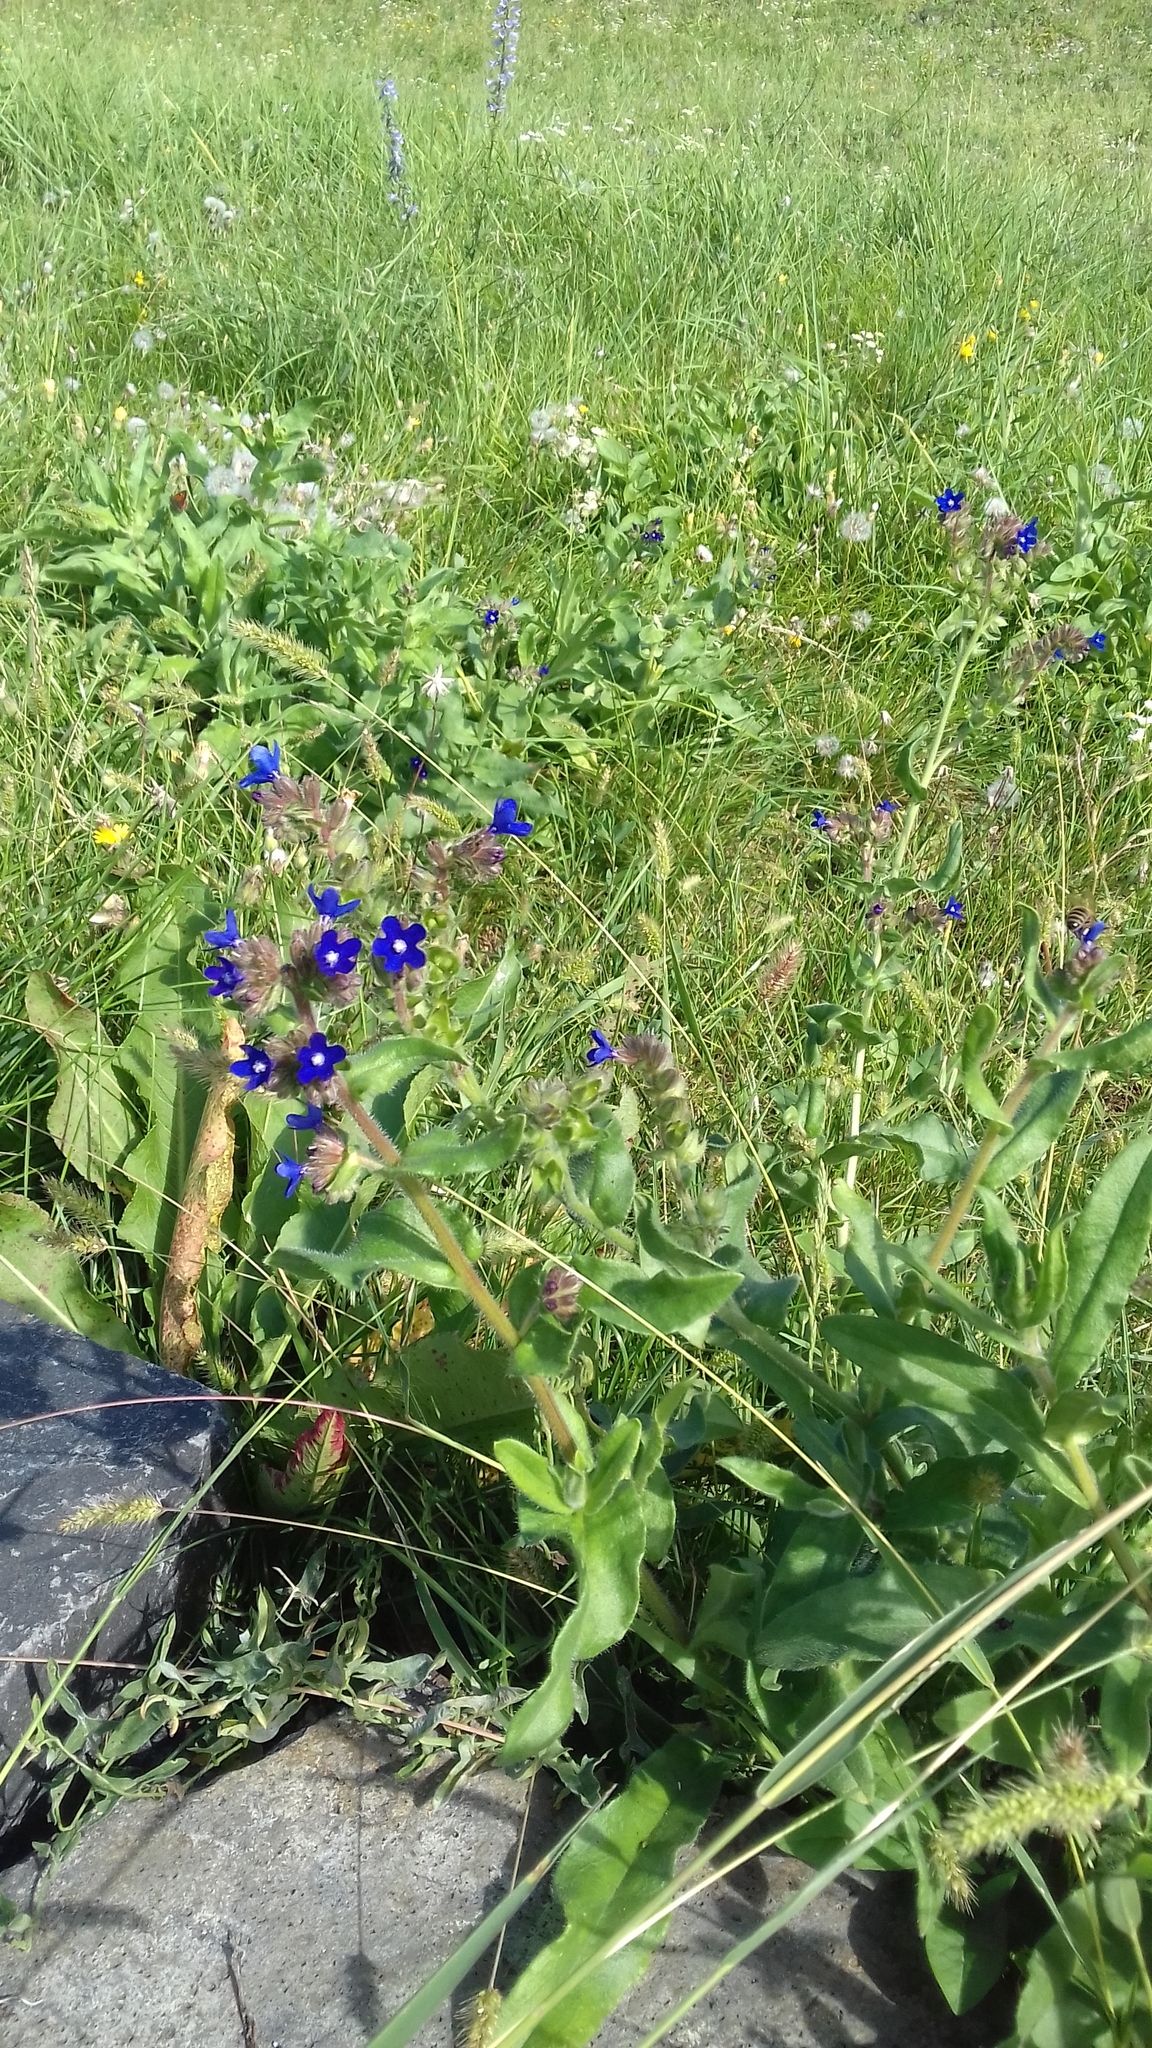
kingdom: Plantae
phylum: Tracheophyta
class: Magnoliopsida
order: Boraginales
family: Boraginaceae
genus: Anchusa
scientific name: Anchusa officinalis
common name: Alkanet
